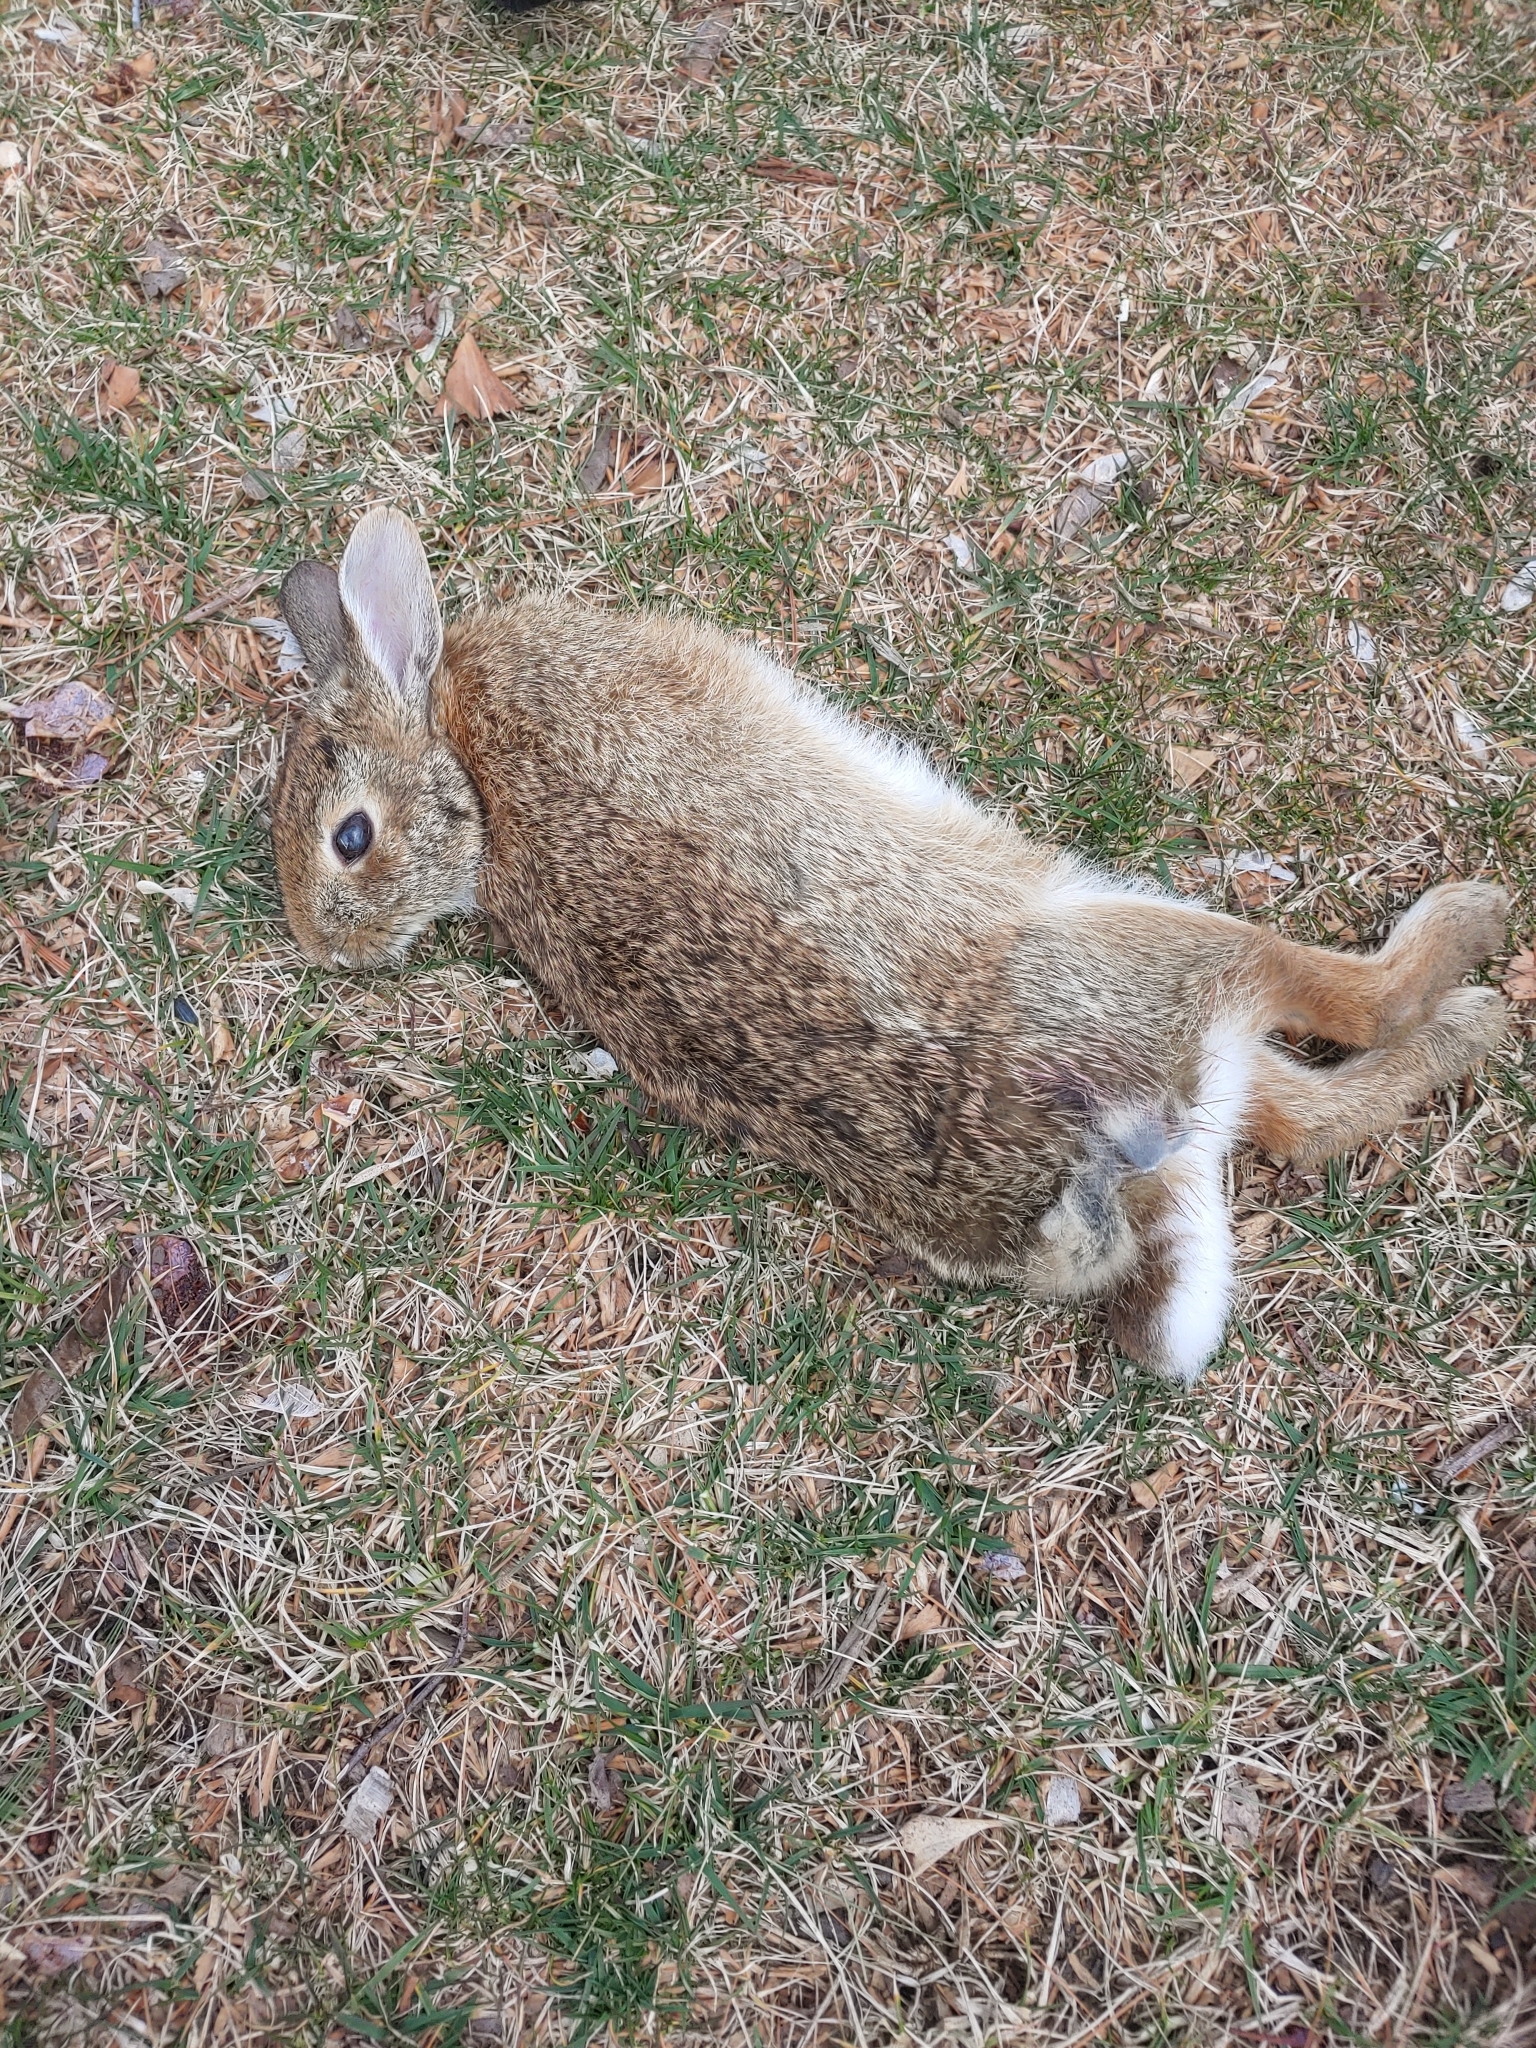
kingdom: Animalia
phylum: Chordata
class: Mammalia
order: Lagomorpha
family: Leporidae
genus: Sylvilagus
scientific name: Sylvilagus floridanus
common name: Eastern cottontail
